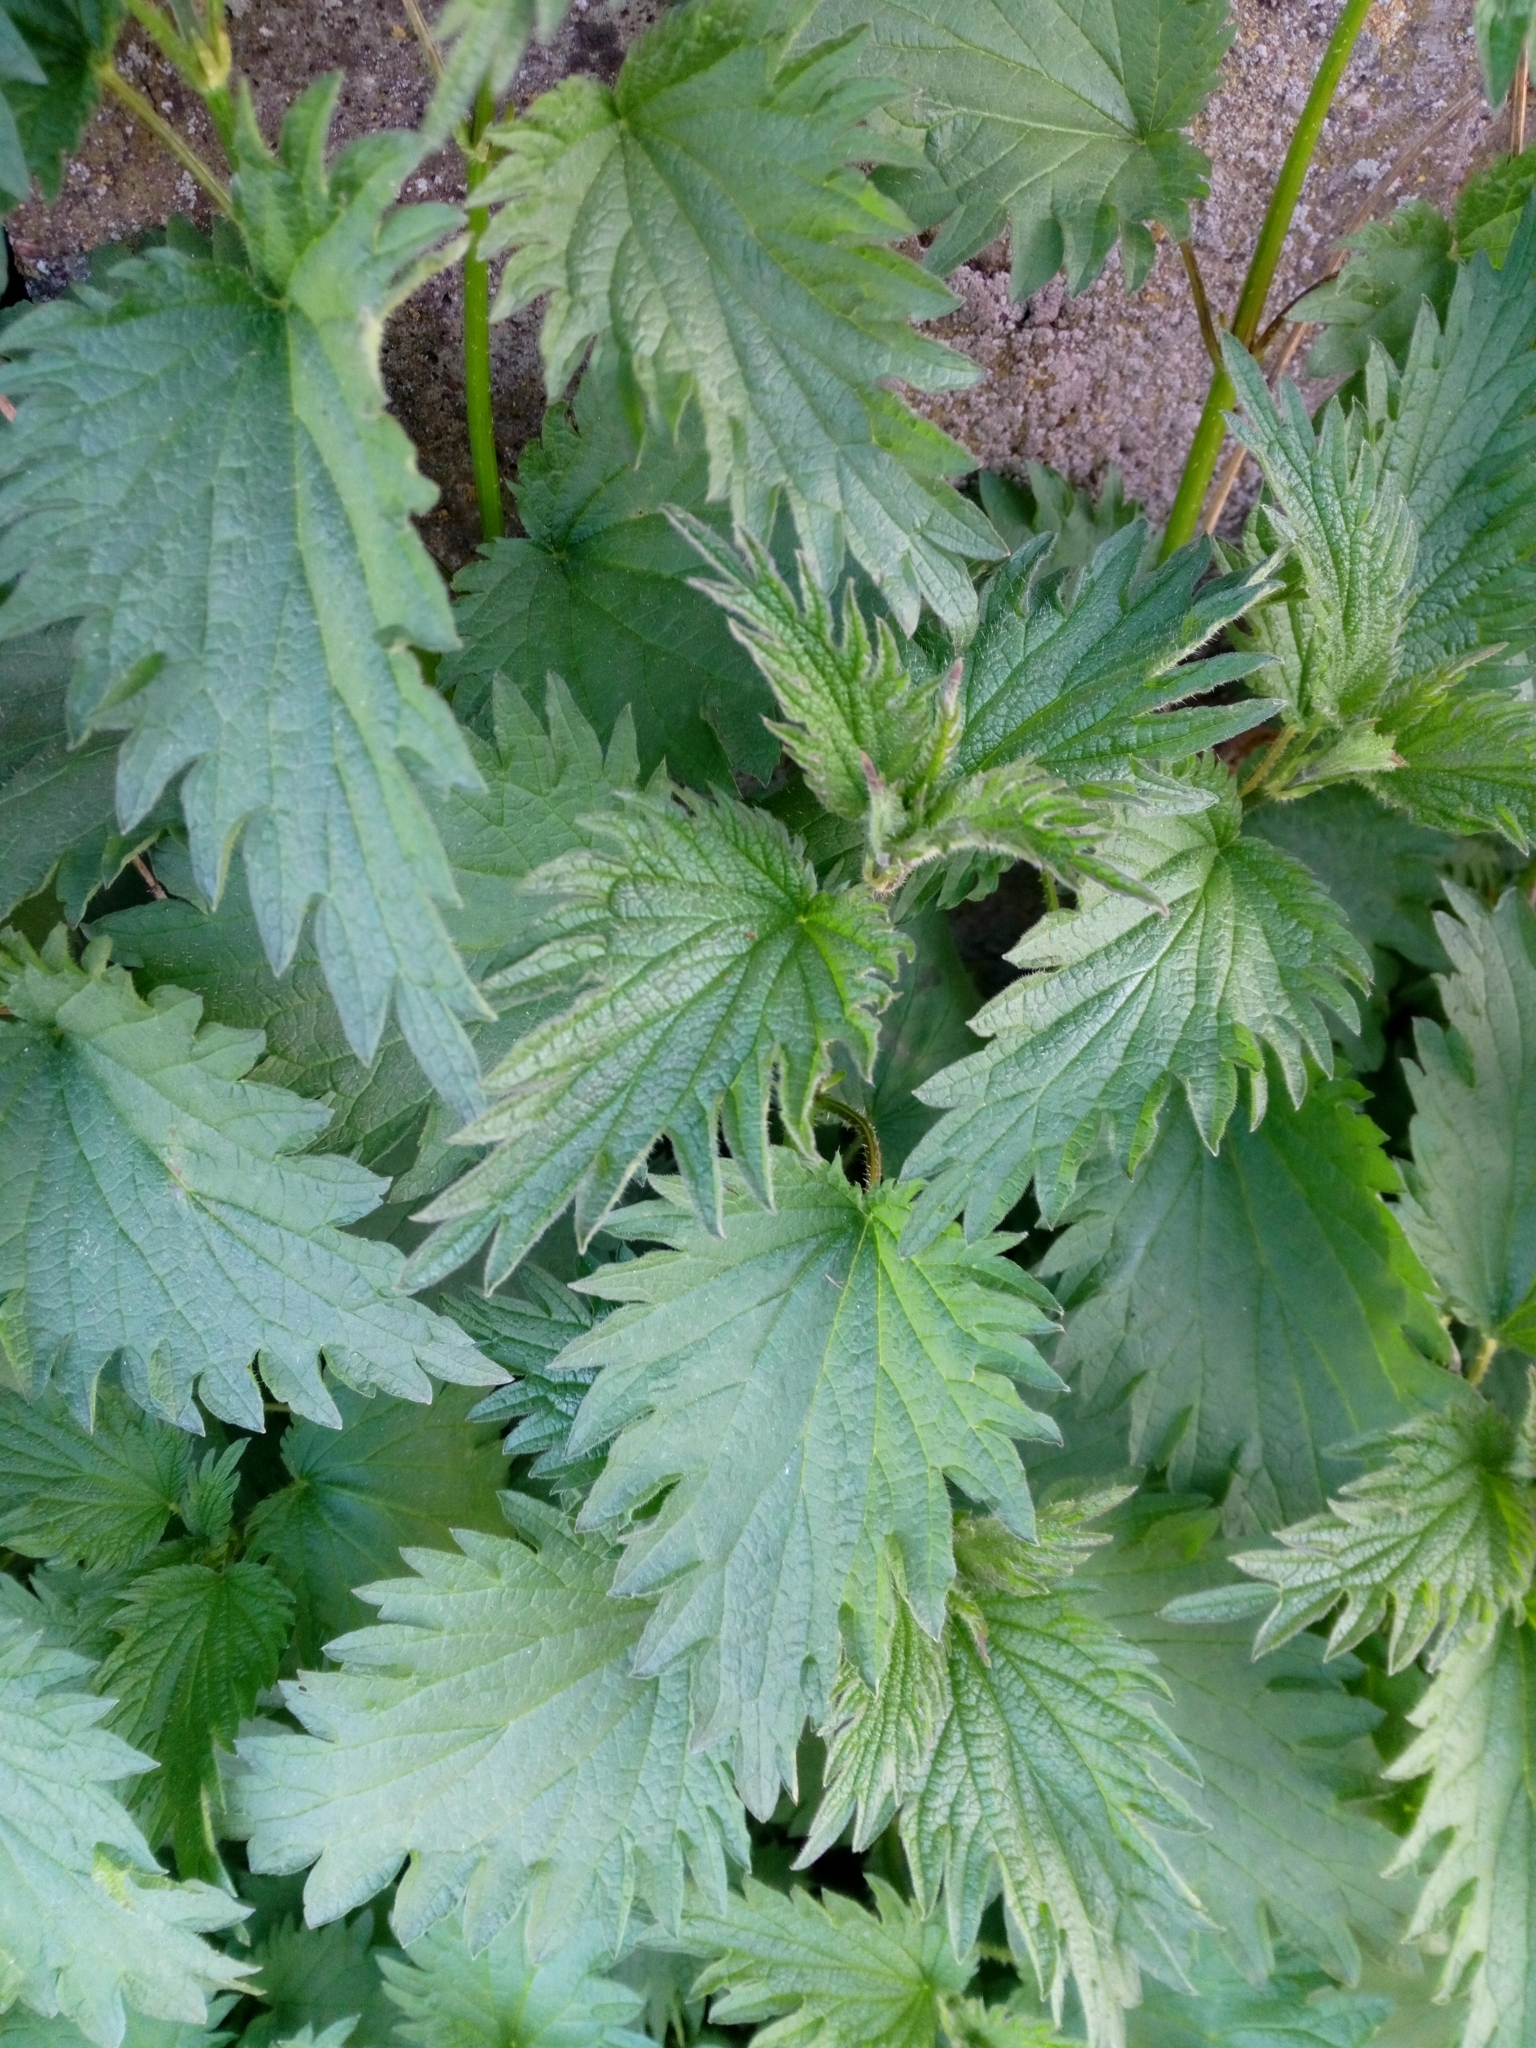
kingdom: Plantae
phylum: Tracheophyta
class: Magnoliopsida
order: Rosales
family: Urticaceae
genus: Urtica
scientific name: Urtica dioica
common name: Common nettle
